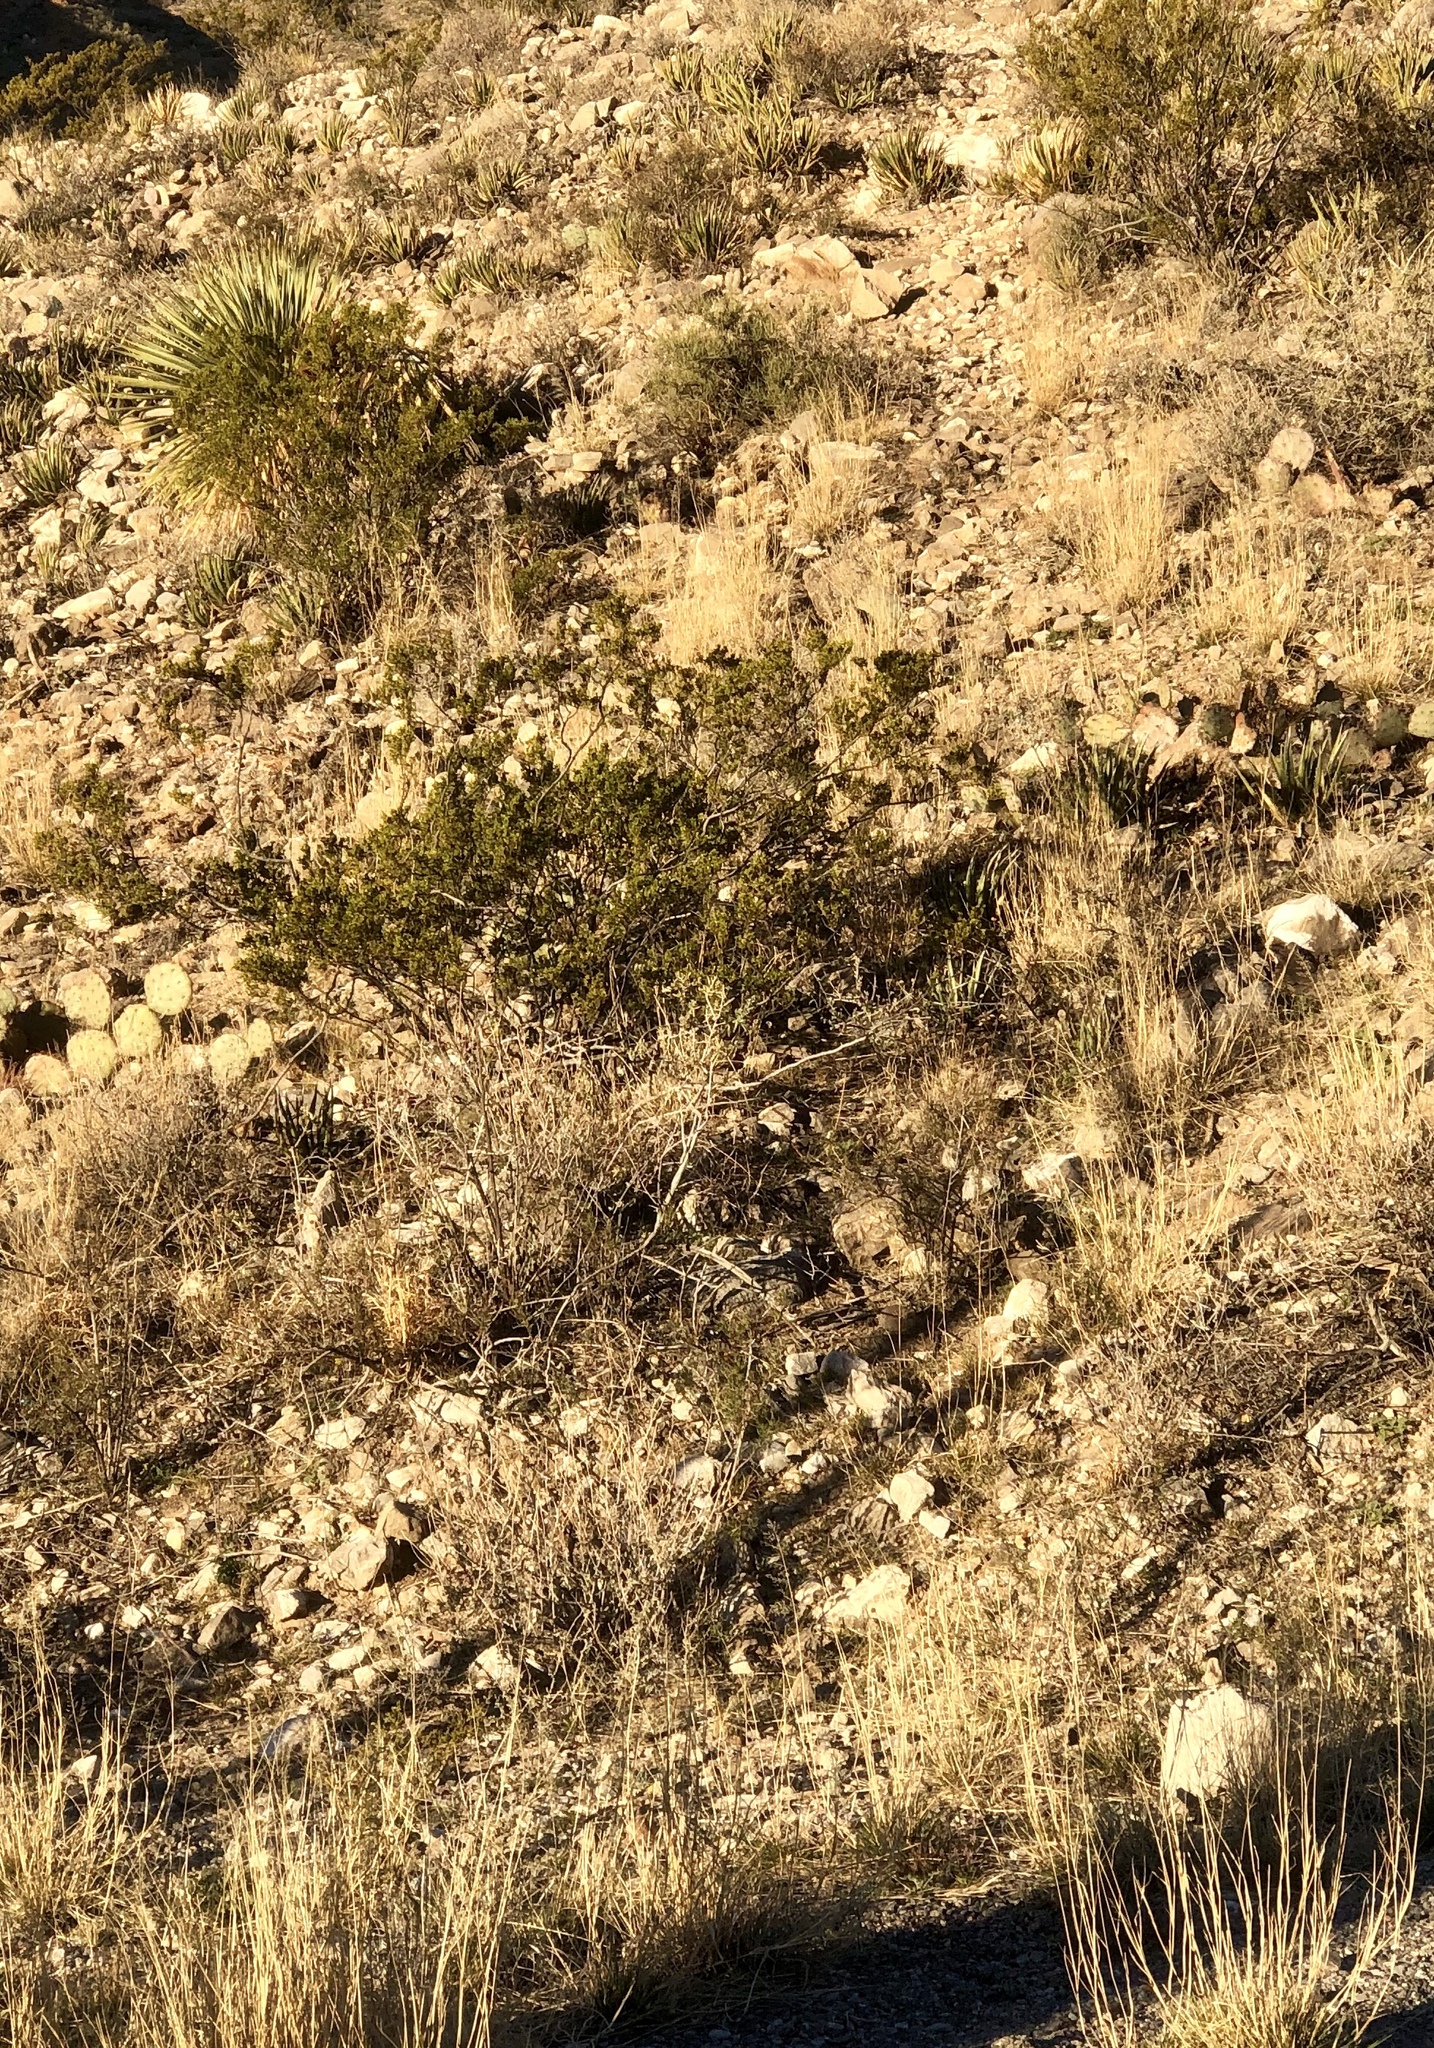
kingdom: Plantae
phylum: Tracheophyta
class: Magnoliopsida
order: Zygophyllales
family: Zygophyllaceae
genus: Larrea
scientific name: Larrea tridentata
